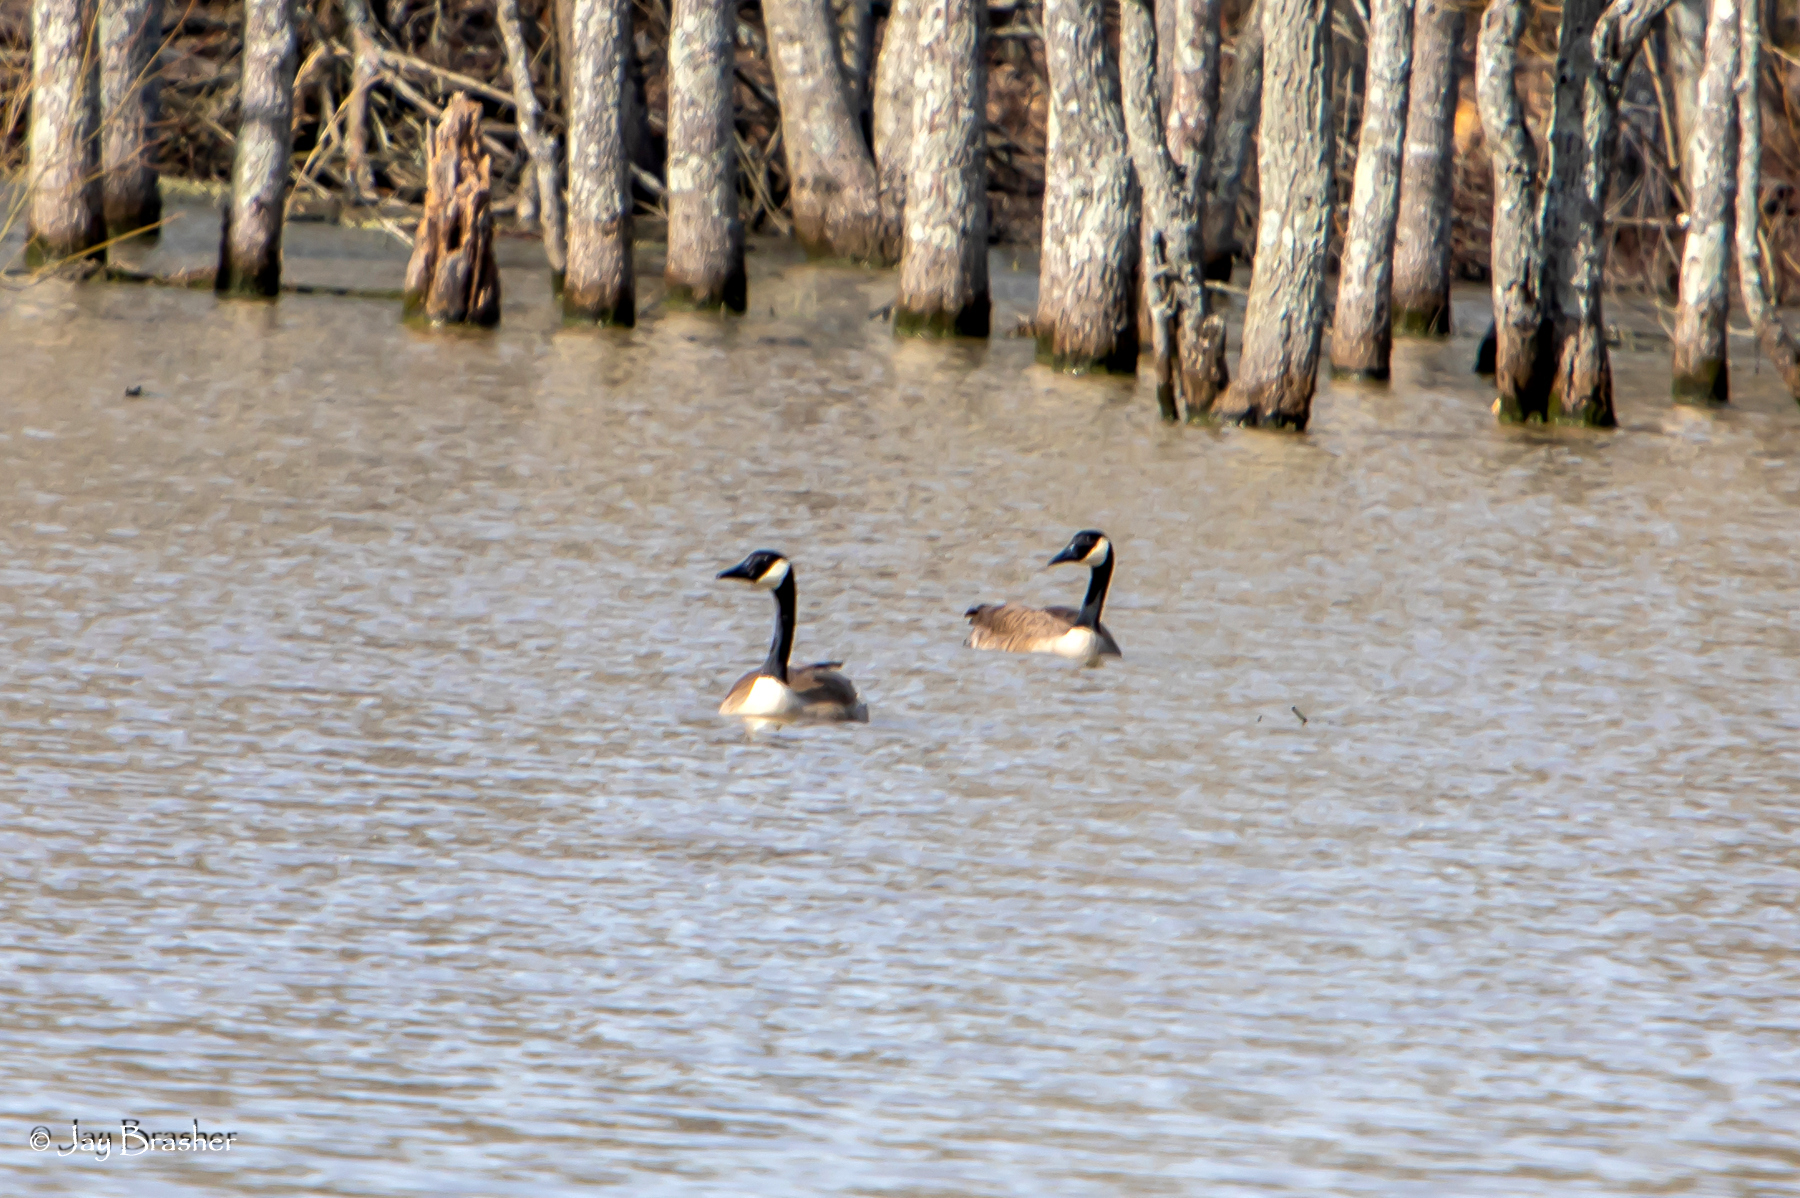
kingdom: Animalia
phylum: Chordata
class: Aves
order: Anseriformes
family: Anatidae
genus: Branta
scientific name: Branta canadensis
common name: Canada goose
